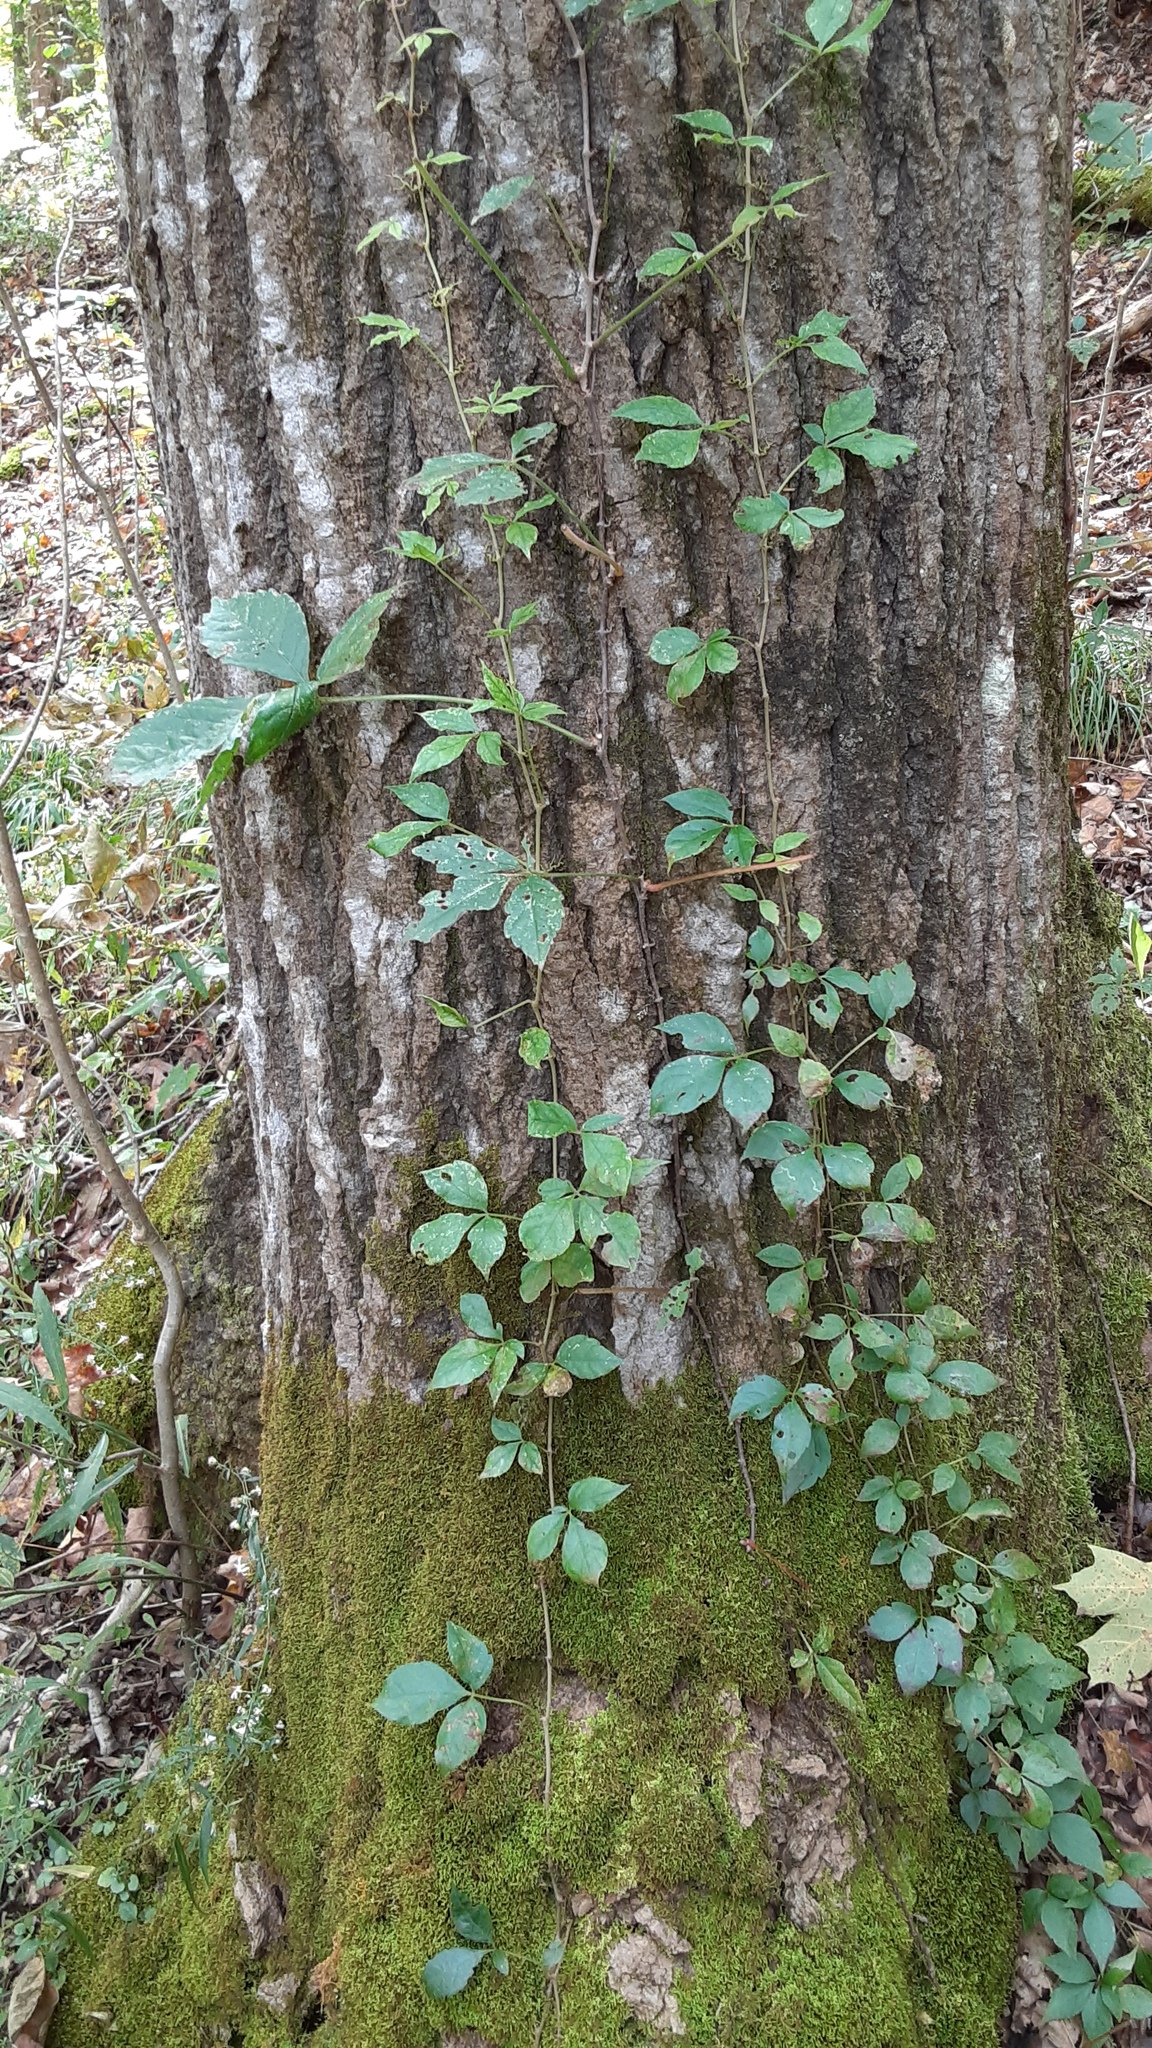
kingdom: Plantae
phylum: Tracheophyta
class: Magnoliopsida
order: Vitales
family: Vitaceae
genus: Parthenocissus
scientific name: Parthenocissus quinquefolia
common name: Virginia-creeper
